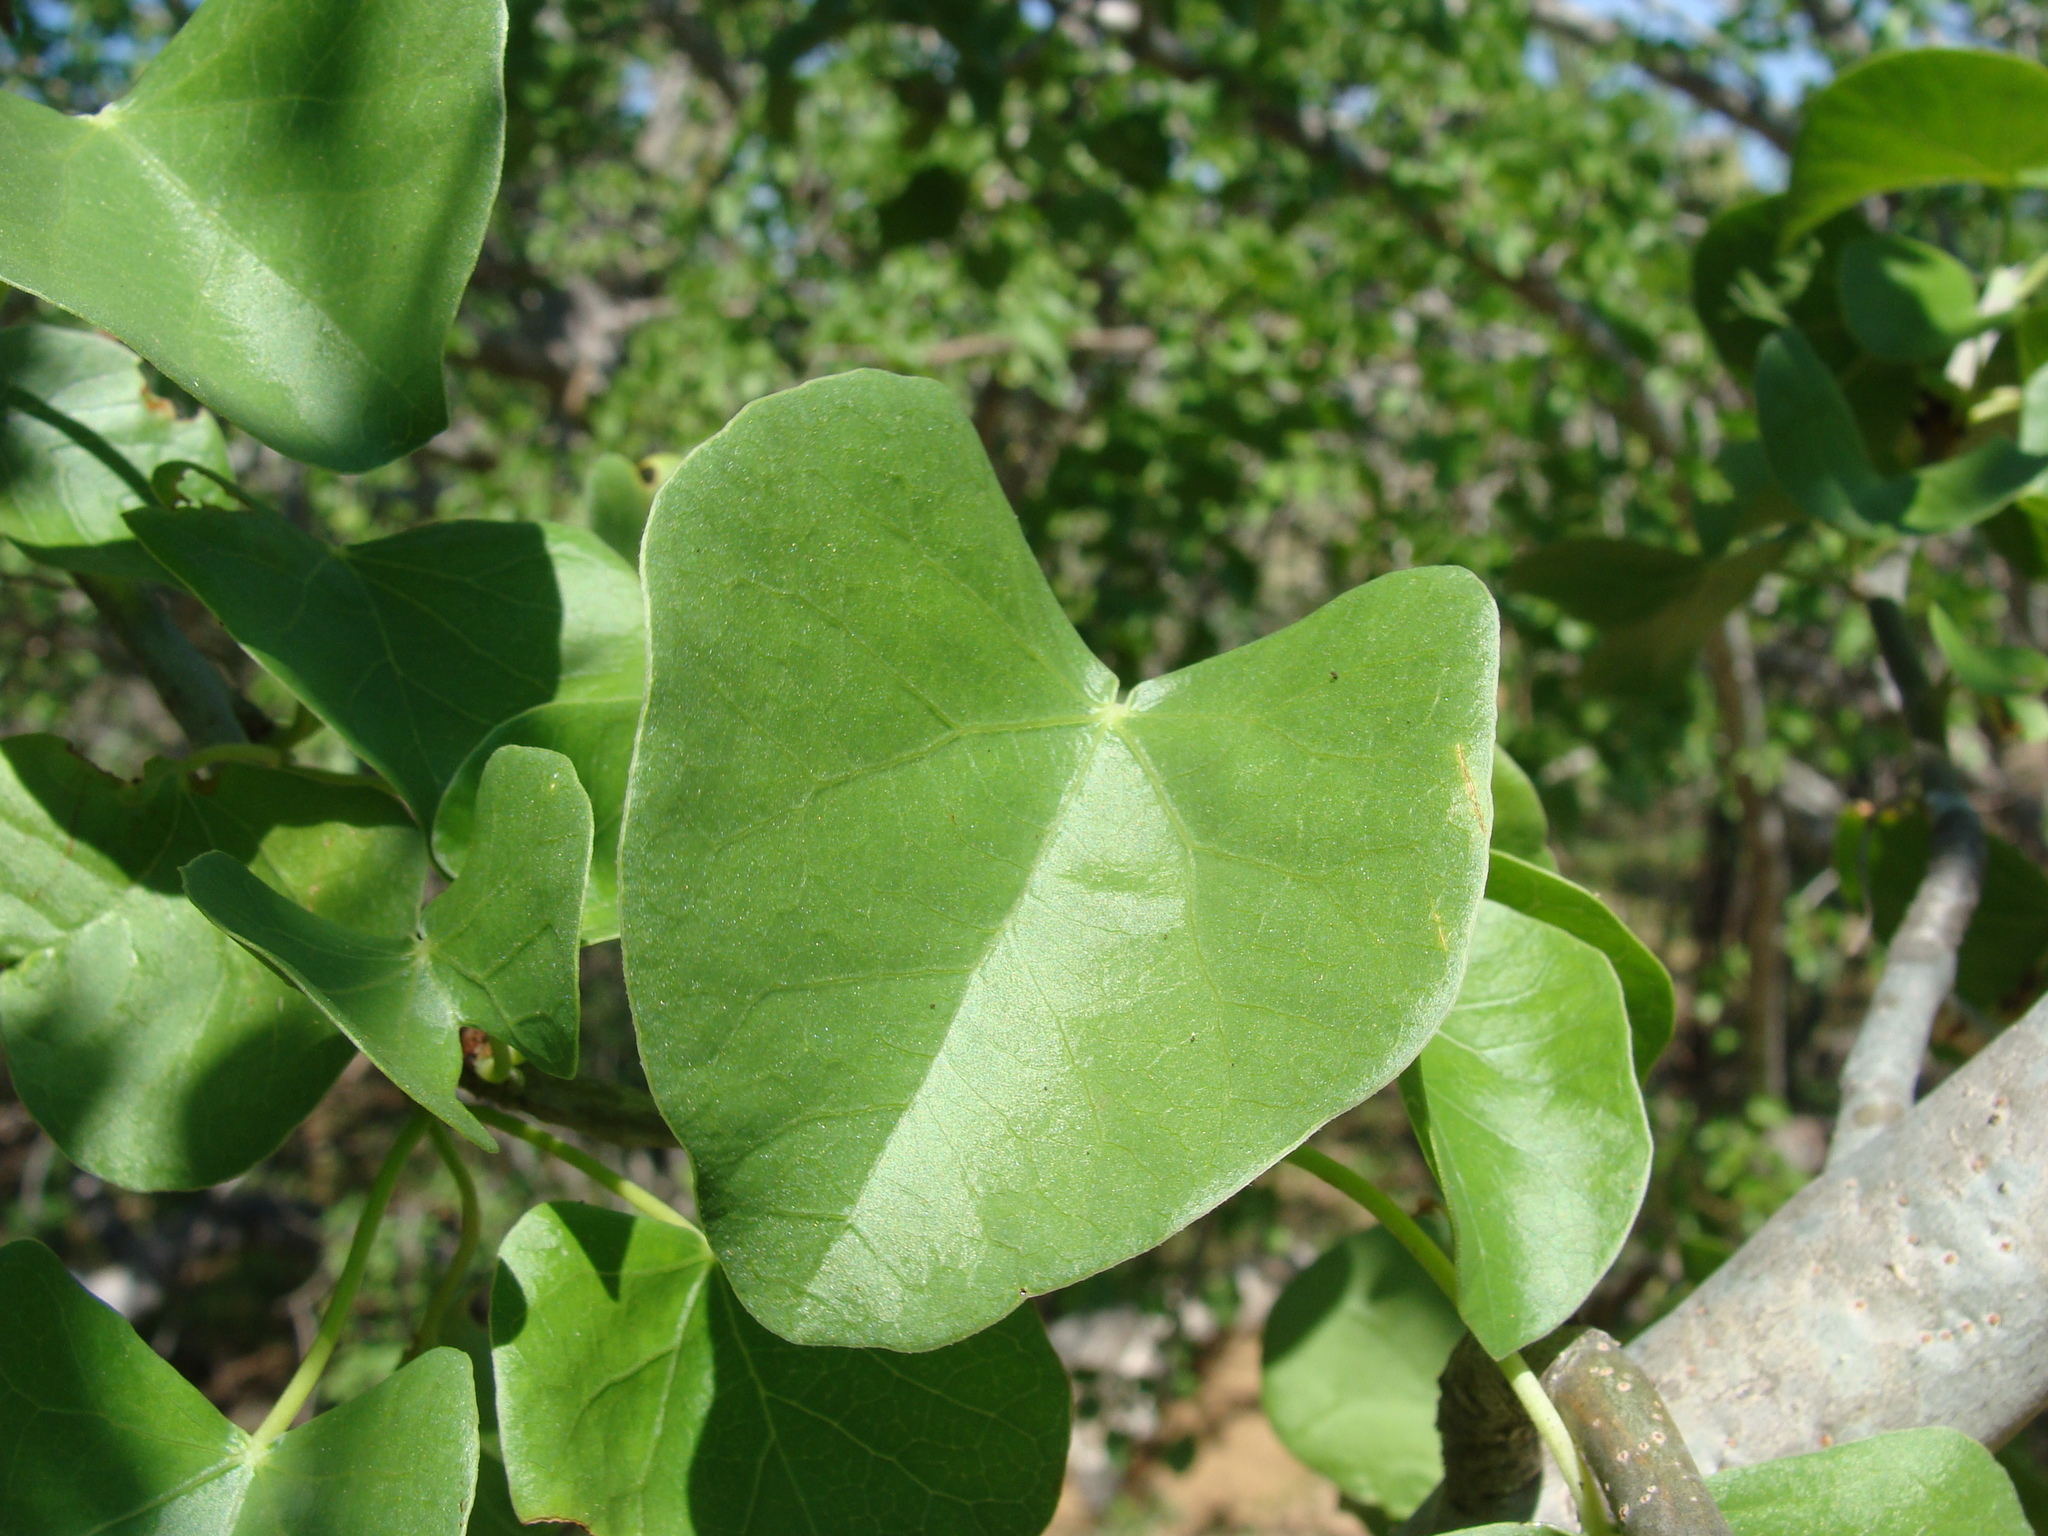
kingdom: Plantae
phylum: Tracheophyta
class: Magnoliopsida
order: Malpighiales
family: Euphorbiaceae
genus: Jatropha
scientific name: Jatropha cinerea
